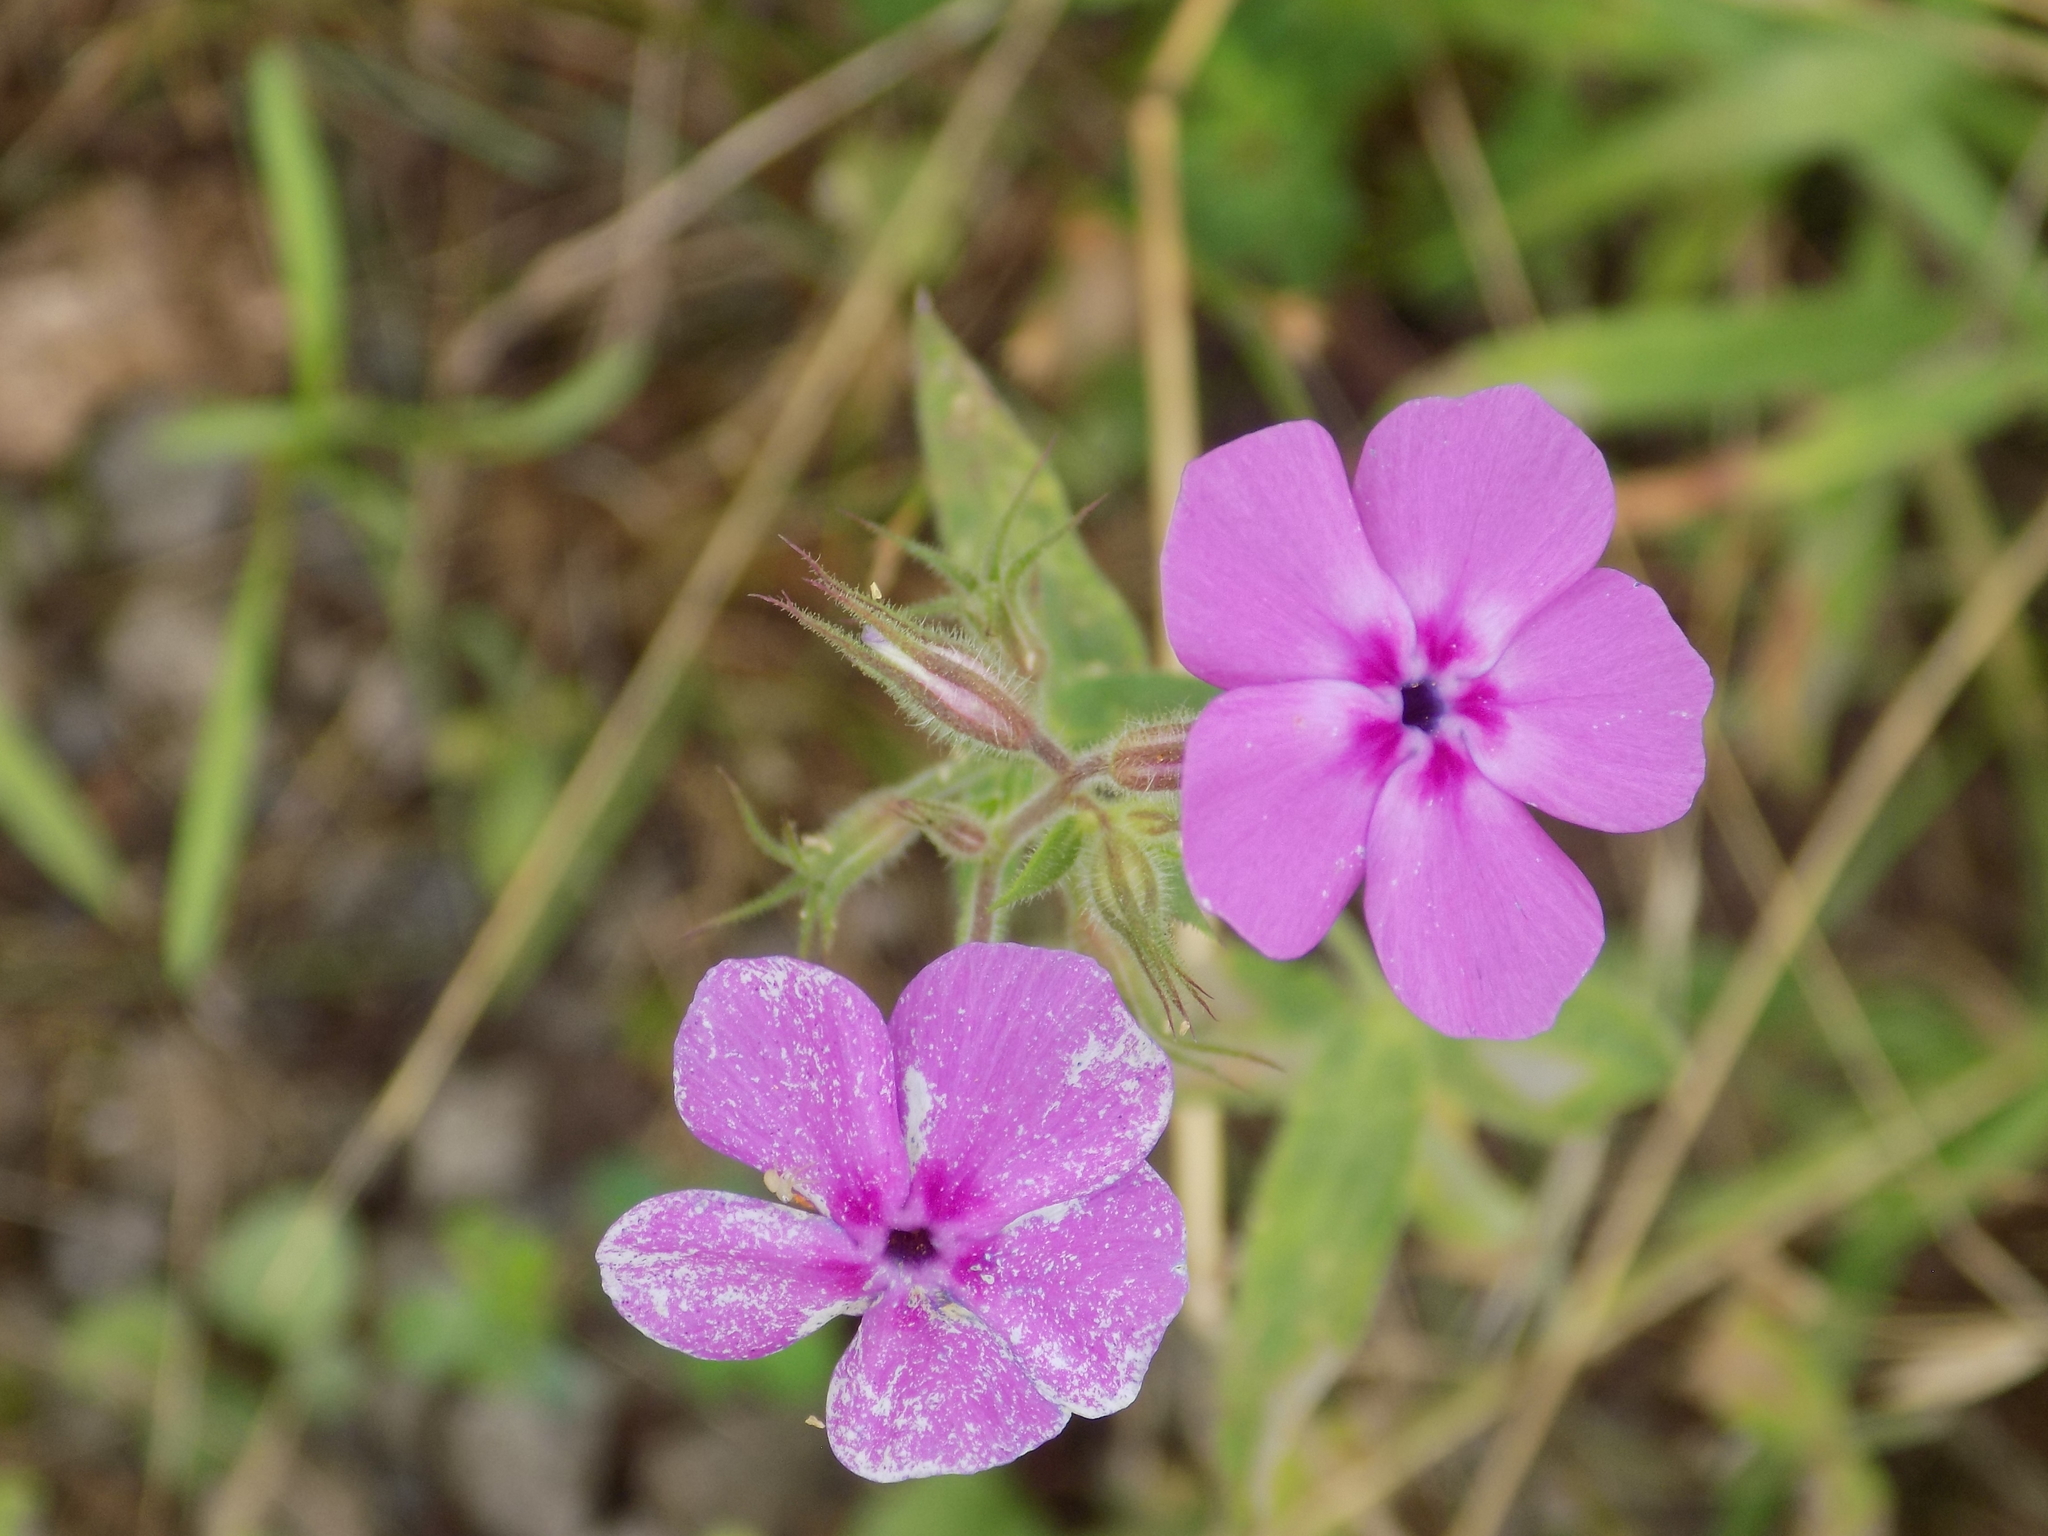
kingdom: Plantae
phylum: Tracheophyta
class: Magnoliopsida
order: Ericales
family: Polemoniaceae
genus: Phlox
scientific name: Phlox pilosa
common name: Prairie phlox
